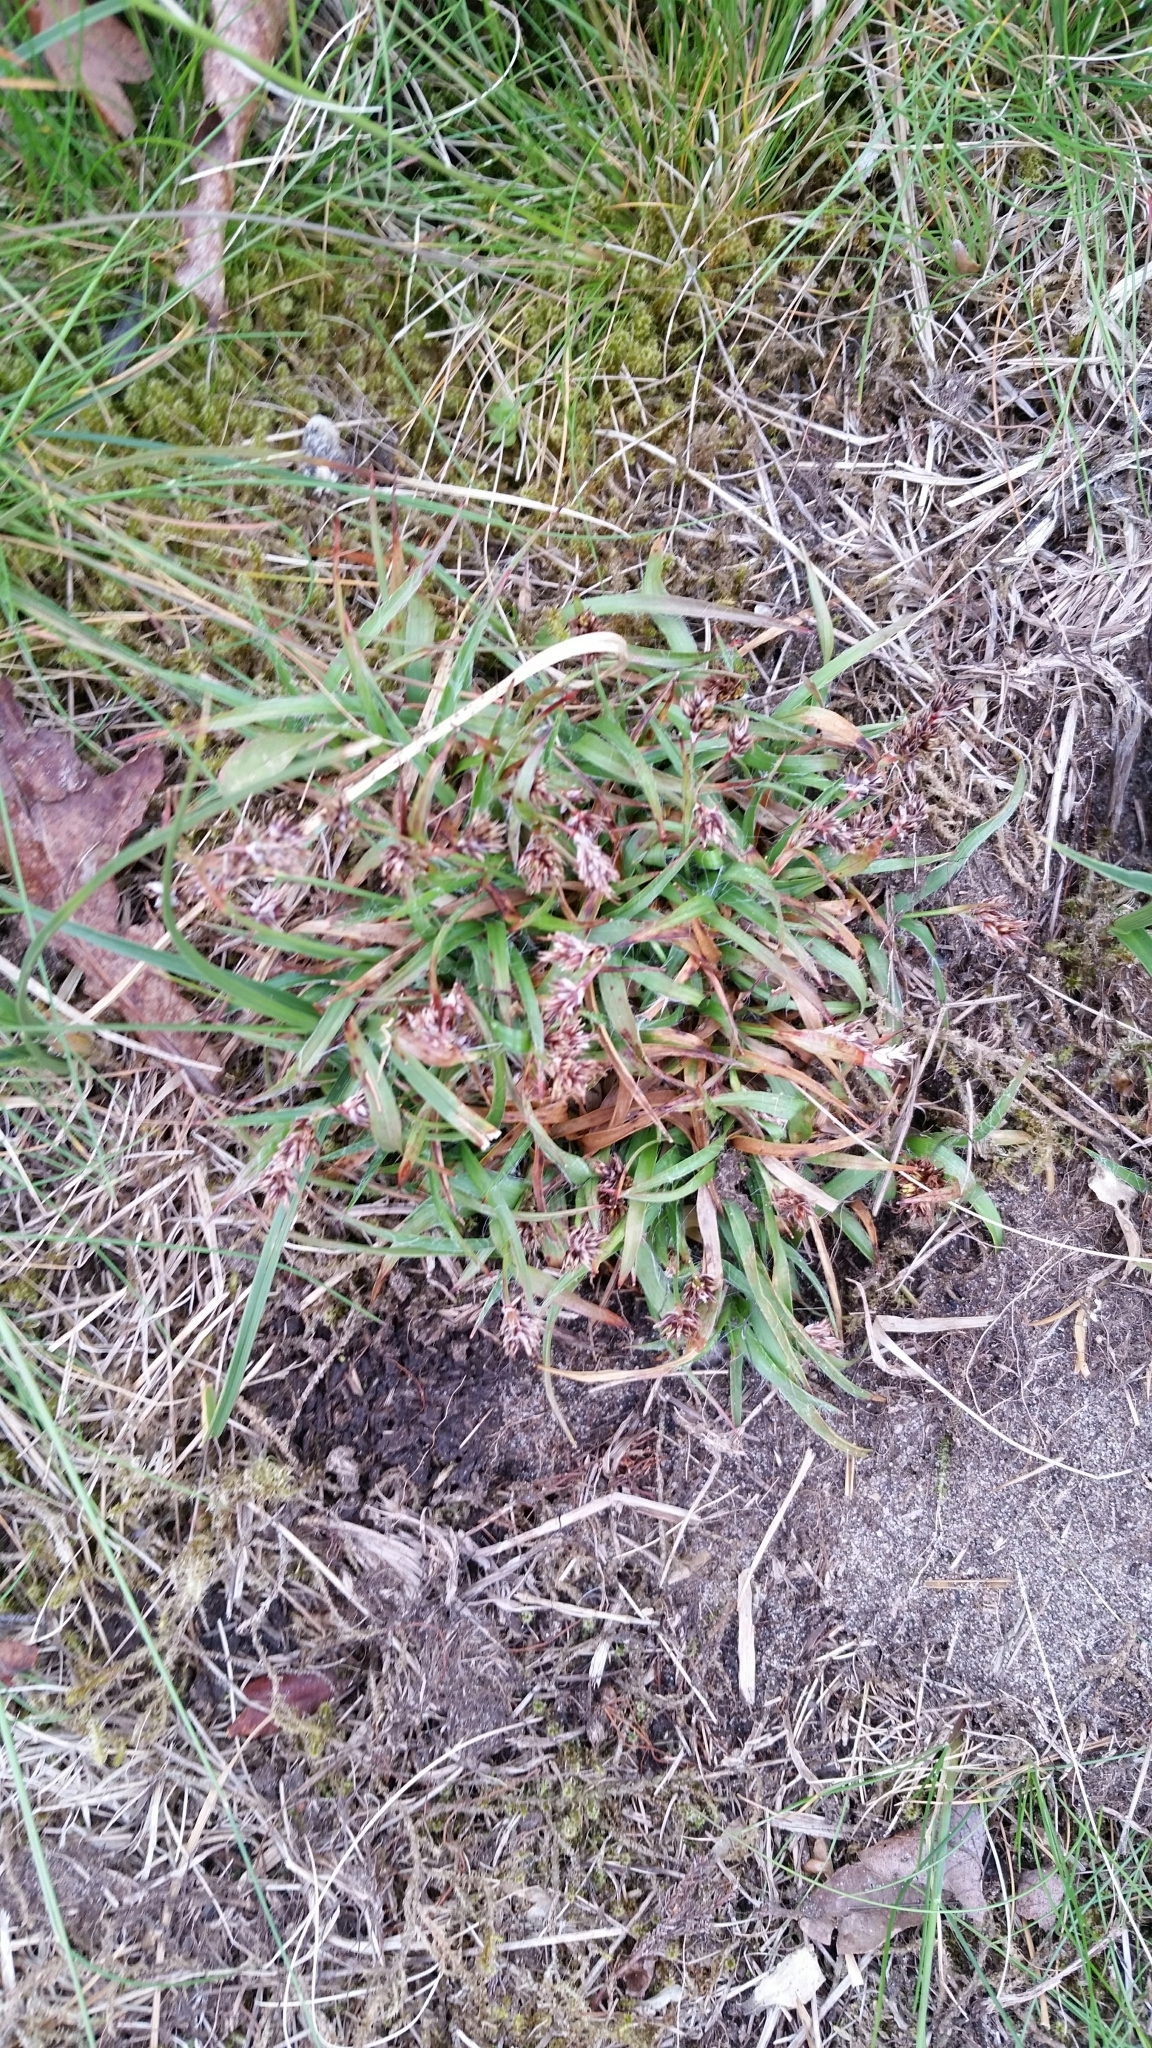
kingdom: Plantae
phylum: Tracheophyta
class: Liliopsida
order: Poales
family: Juncaceae
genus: Luzula
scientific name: Luzula campestris
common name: Field wood-rush
